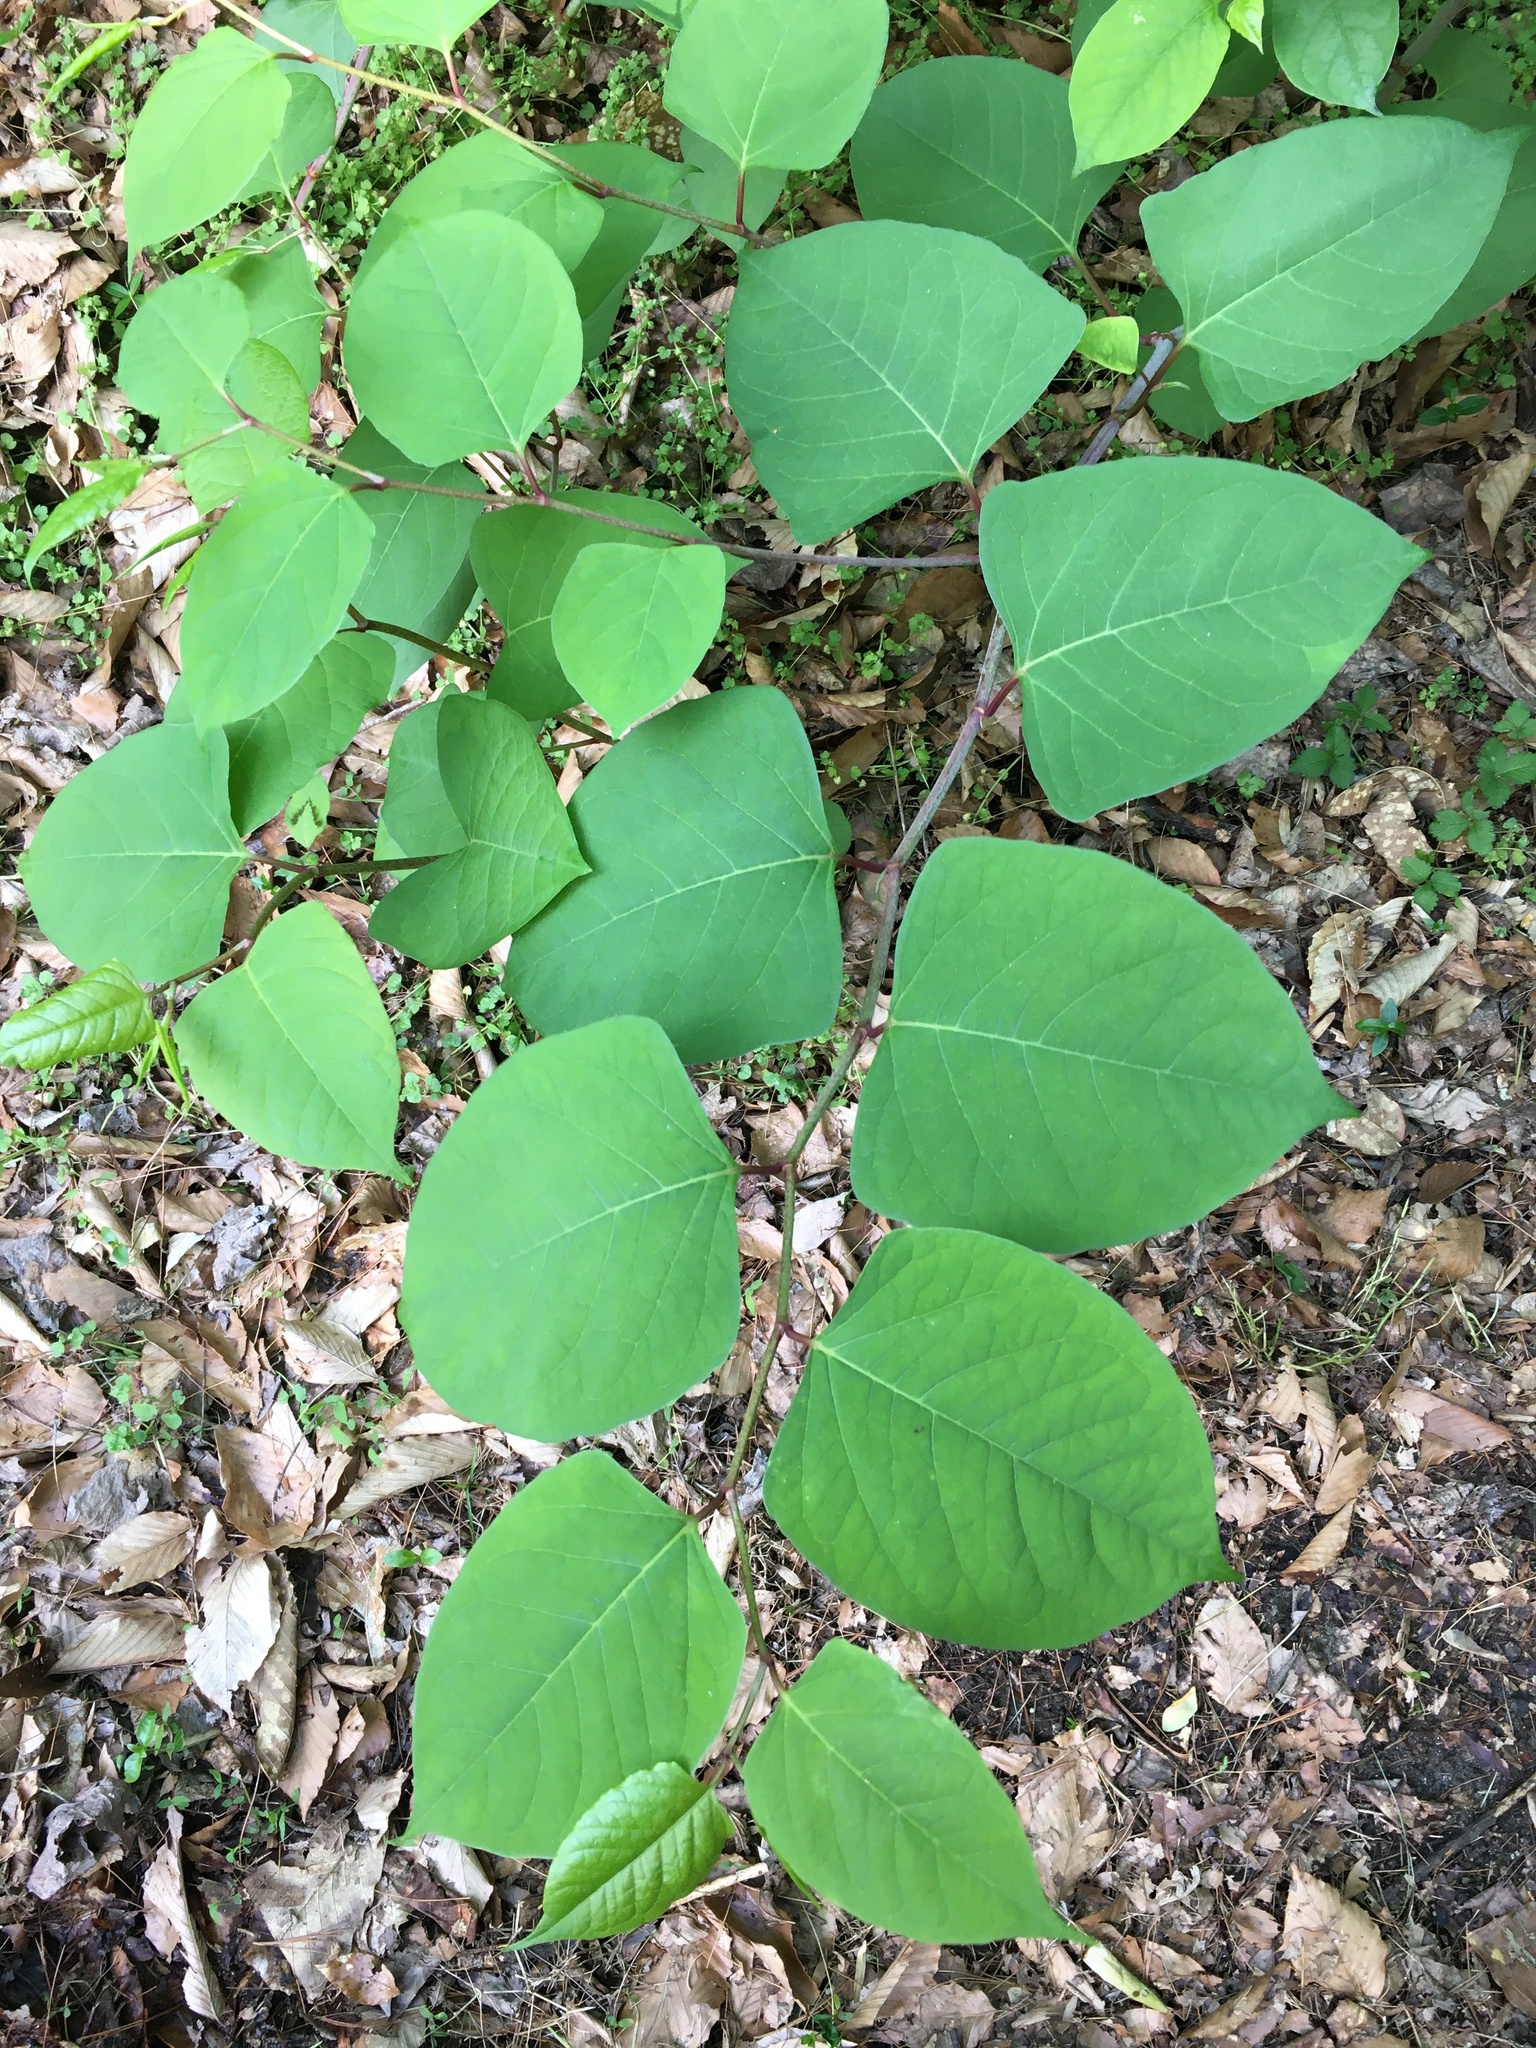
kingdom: Plantae
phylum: Tracheophyta
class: Magnoliopsida
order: Caryophyllales
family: Polygonaceae
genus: Reynoutria
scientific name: Reynoutria japonica
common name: Japanese knotweed
